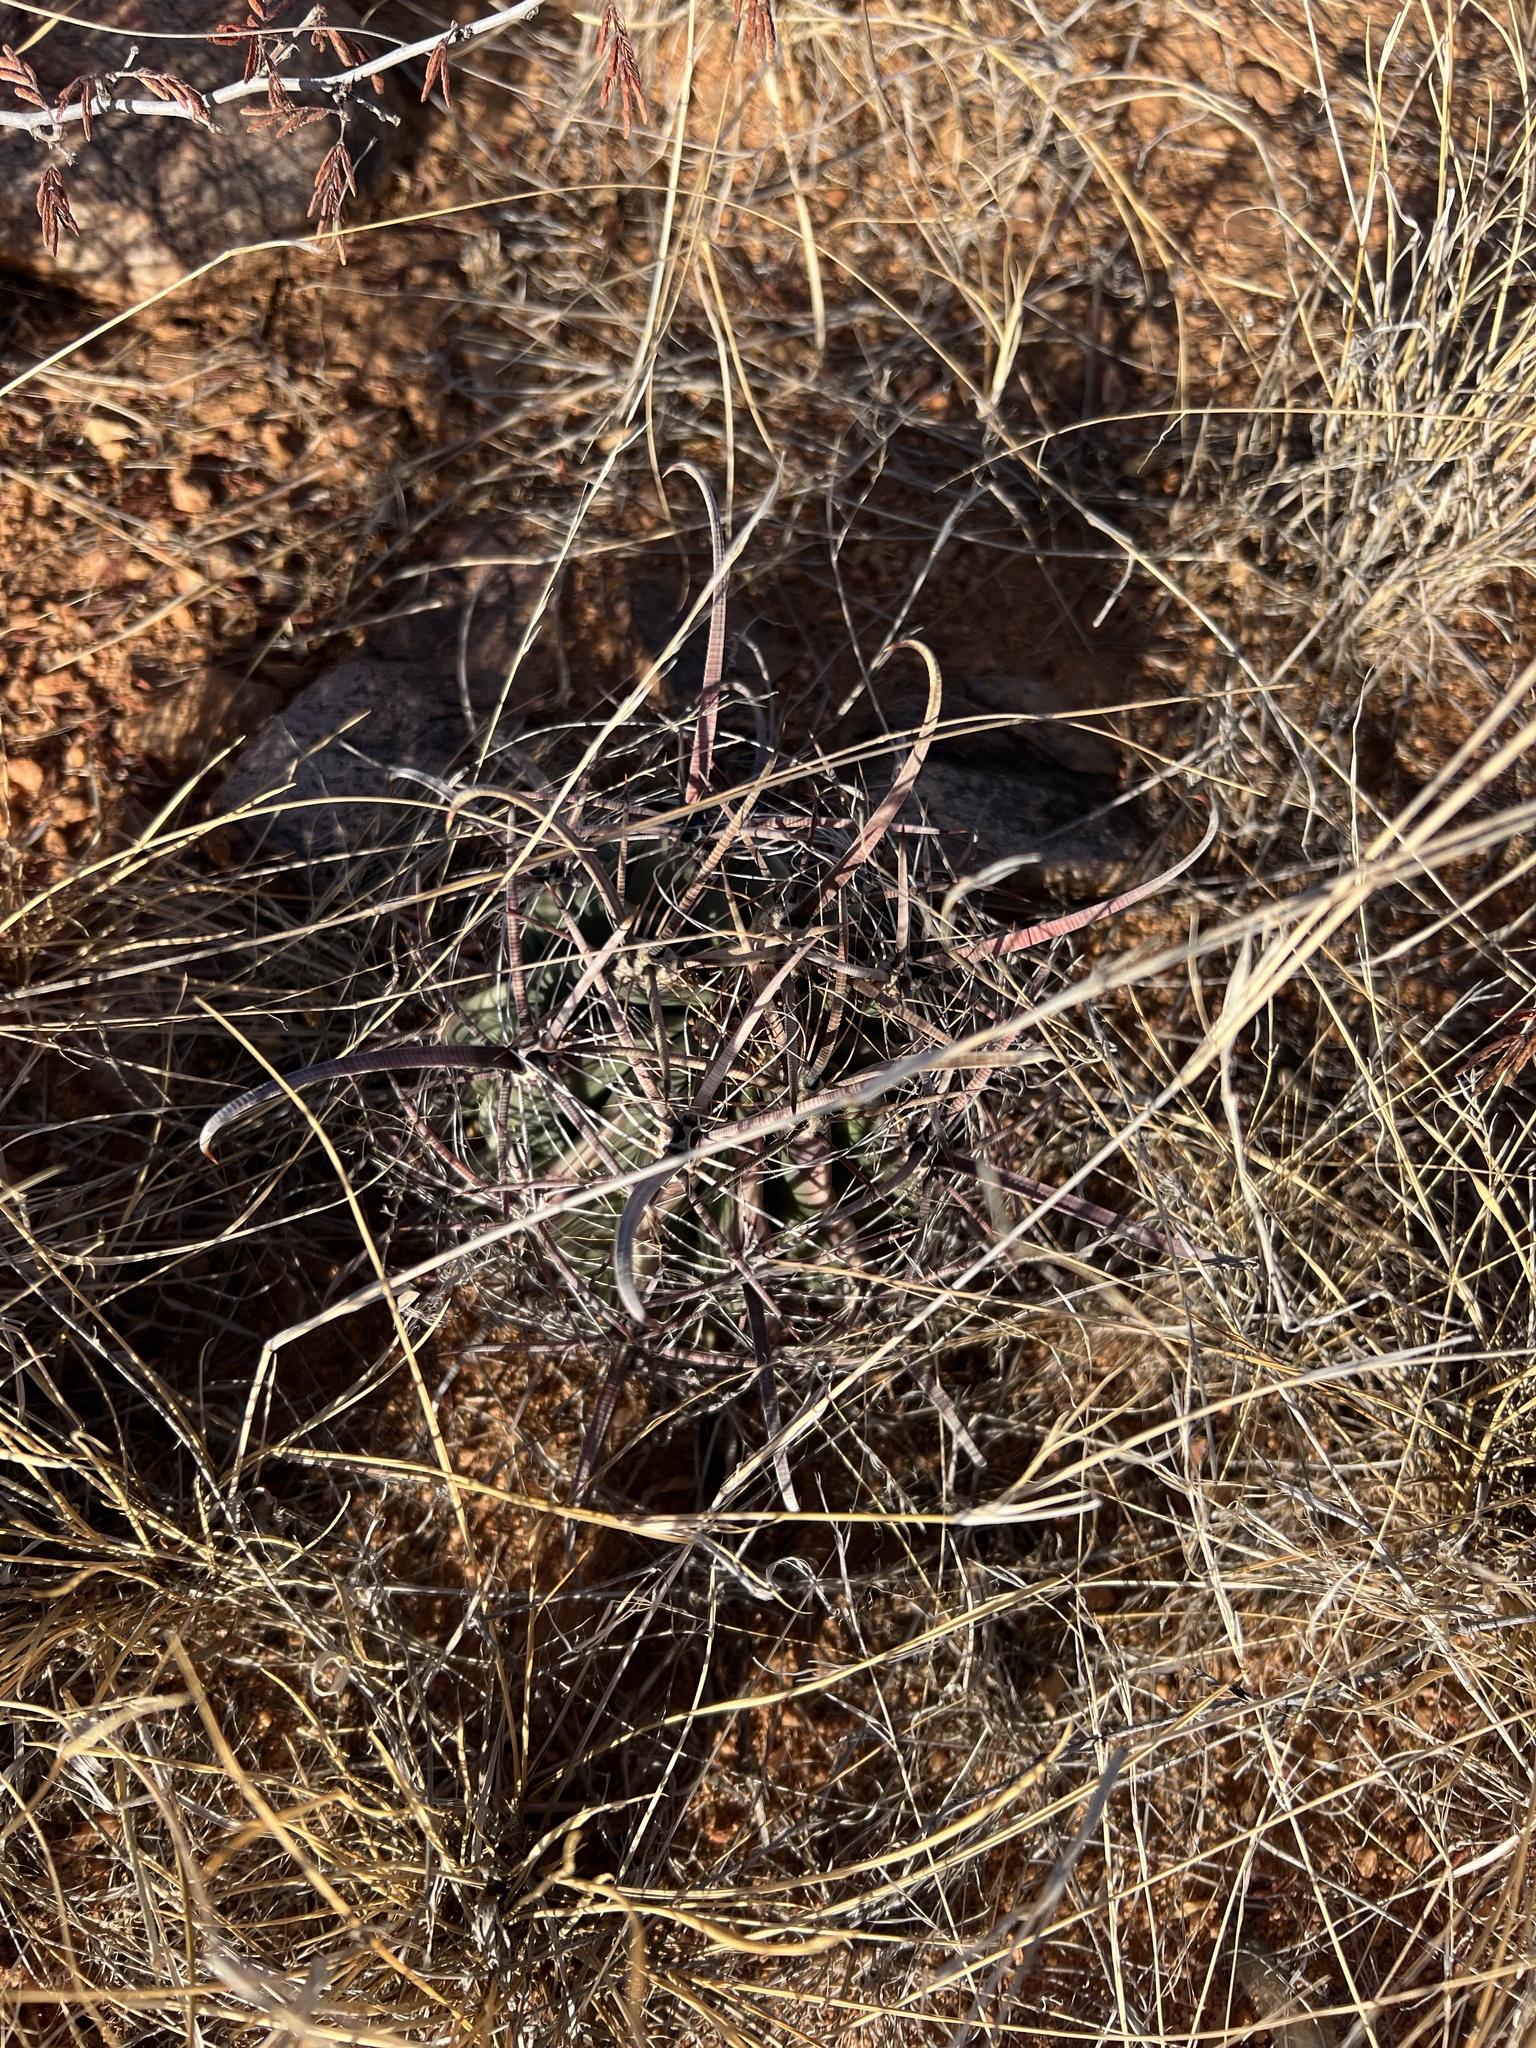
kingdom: Plantae
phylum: Tracheophyta
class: Magnoliopsida
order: Caryophyllales
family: Cactaceae
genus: Ferocactus
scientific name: Ferocactus wislizeni
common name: Candy barrel cactus
